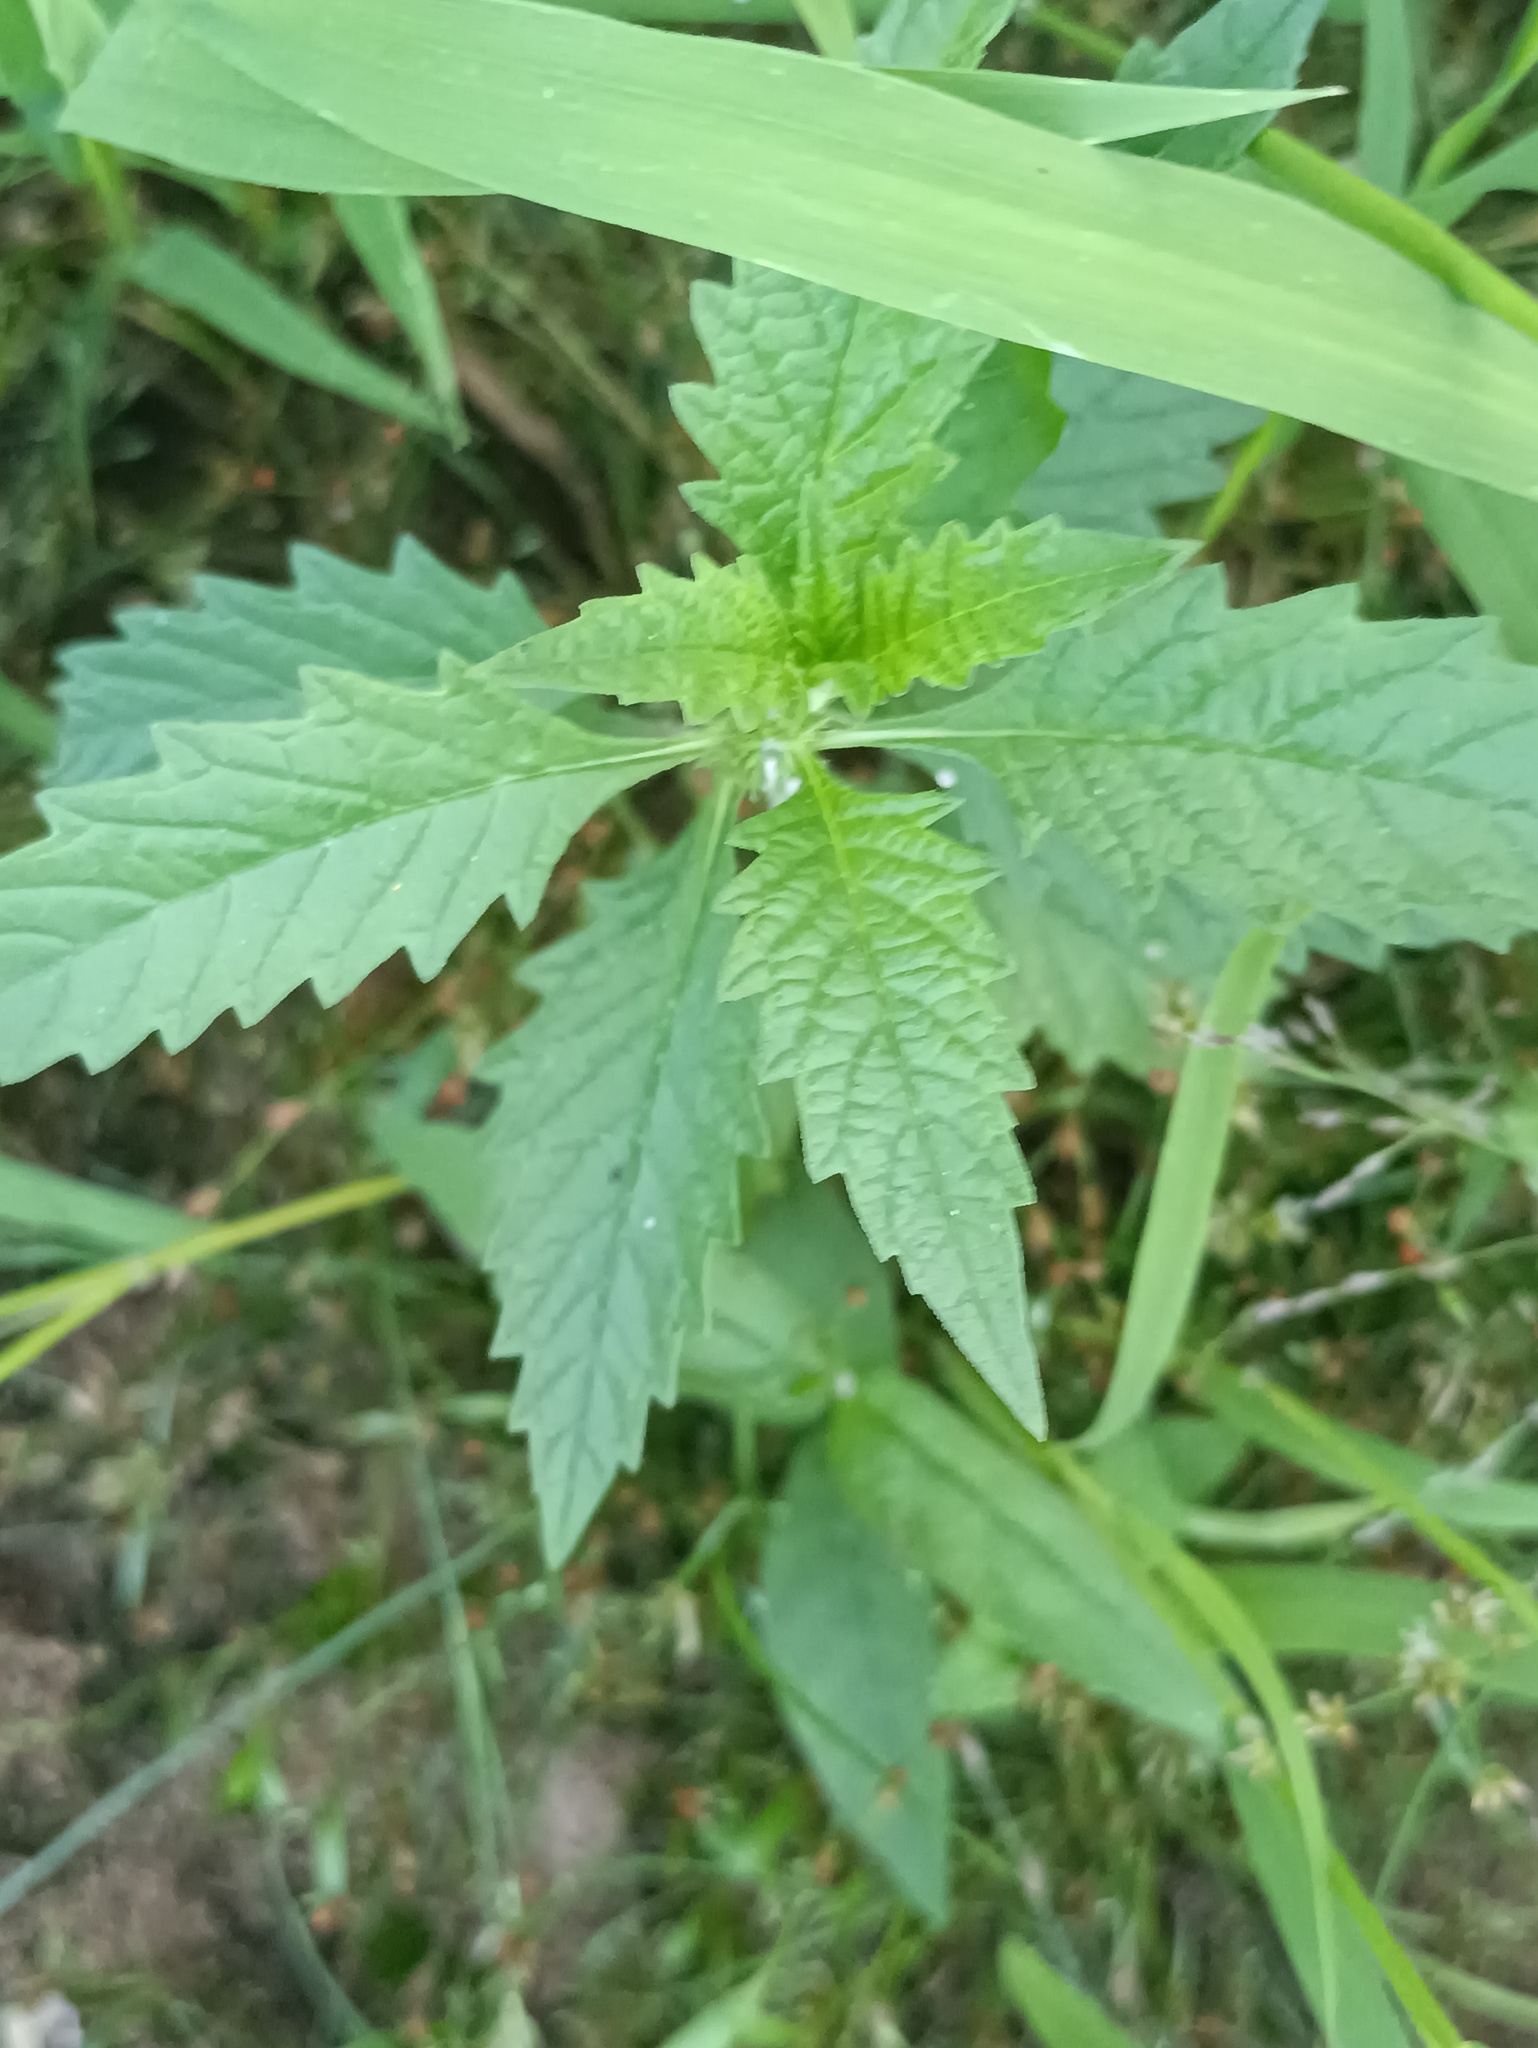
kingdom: Plantae
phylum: Tracheophyta
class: Magnoliopsida
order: Lamiales
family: Lamiaceae
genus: Lycopus
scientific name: Lycopus europaeus
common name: European bugleweed
